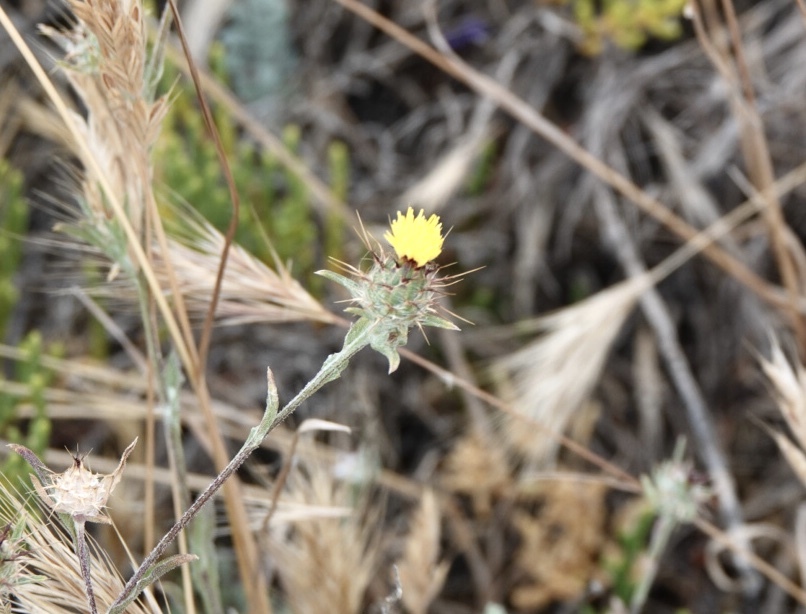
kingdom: Plantae
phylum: Tracheophyta
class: Magnoliopsida
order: Asterales
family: Asteraceae
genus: Centaurea
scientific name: Centaurea melitensis
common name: Maltese star-thistle
